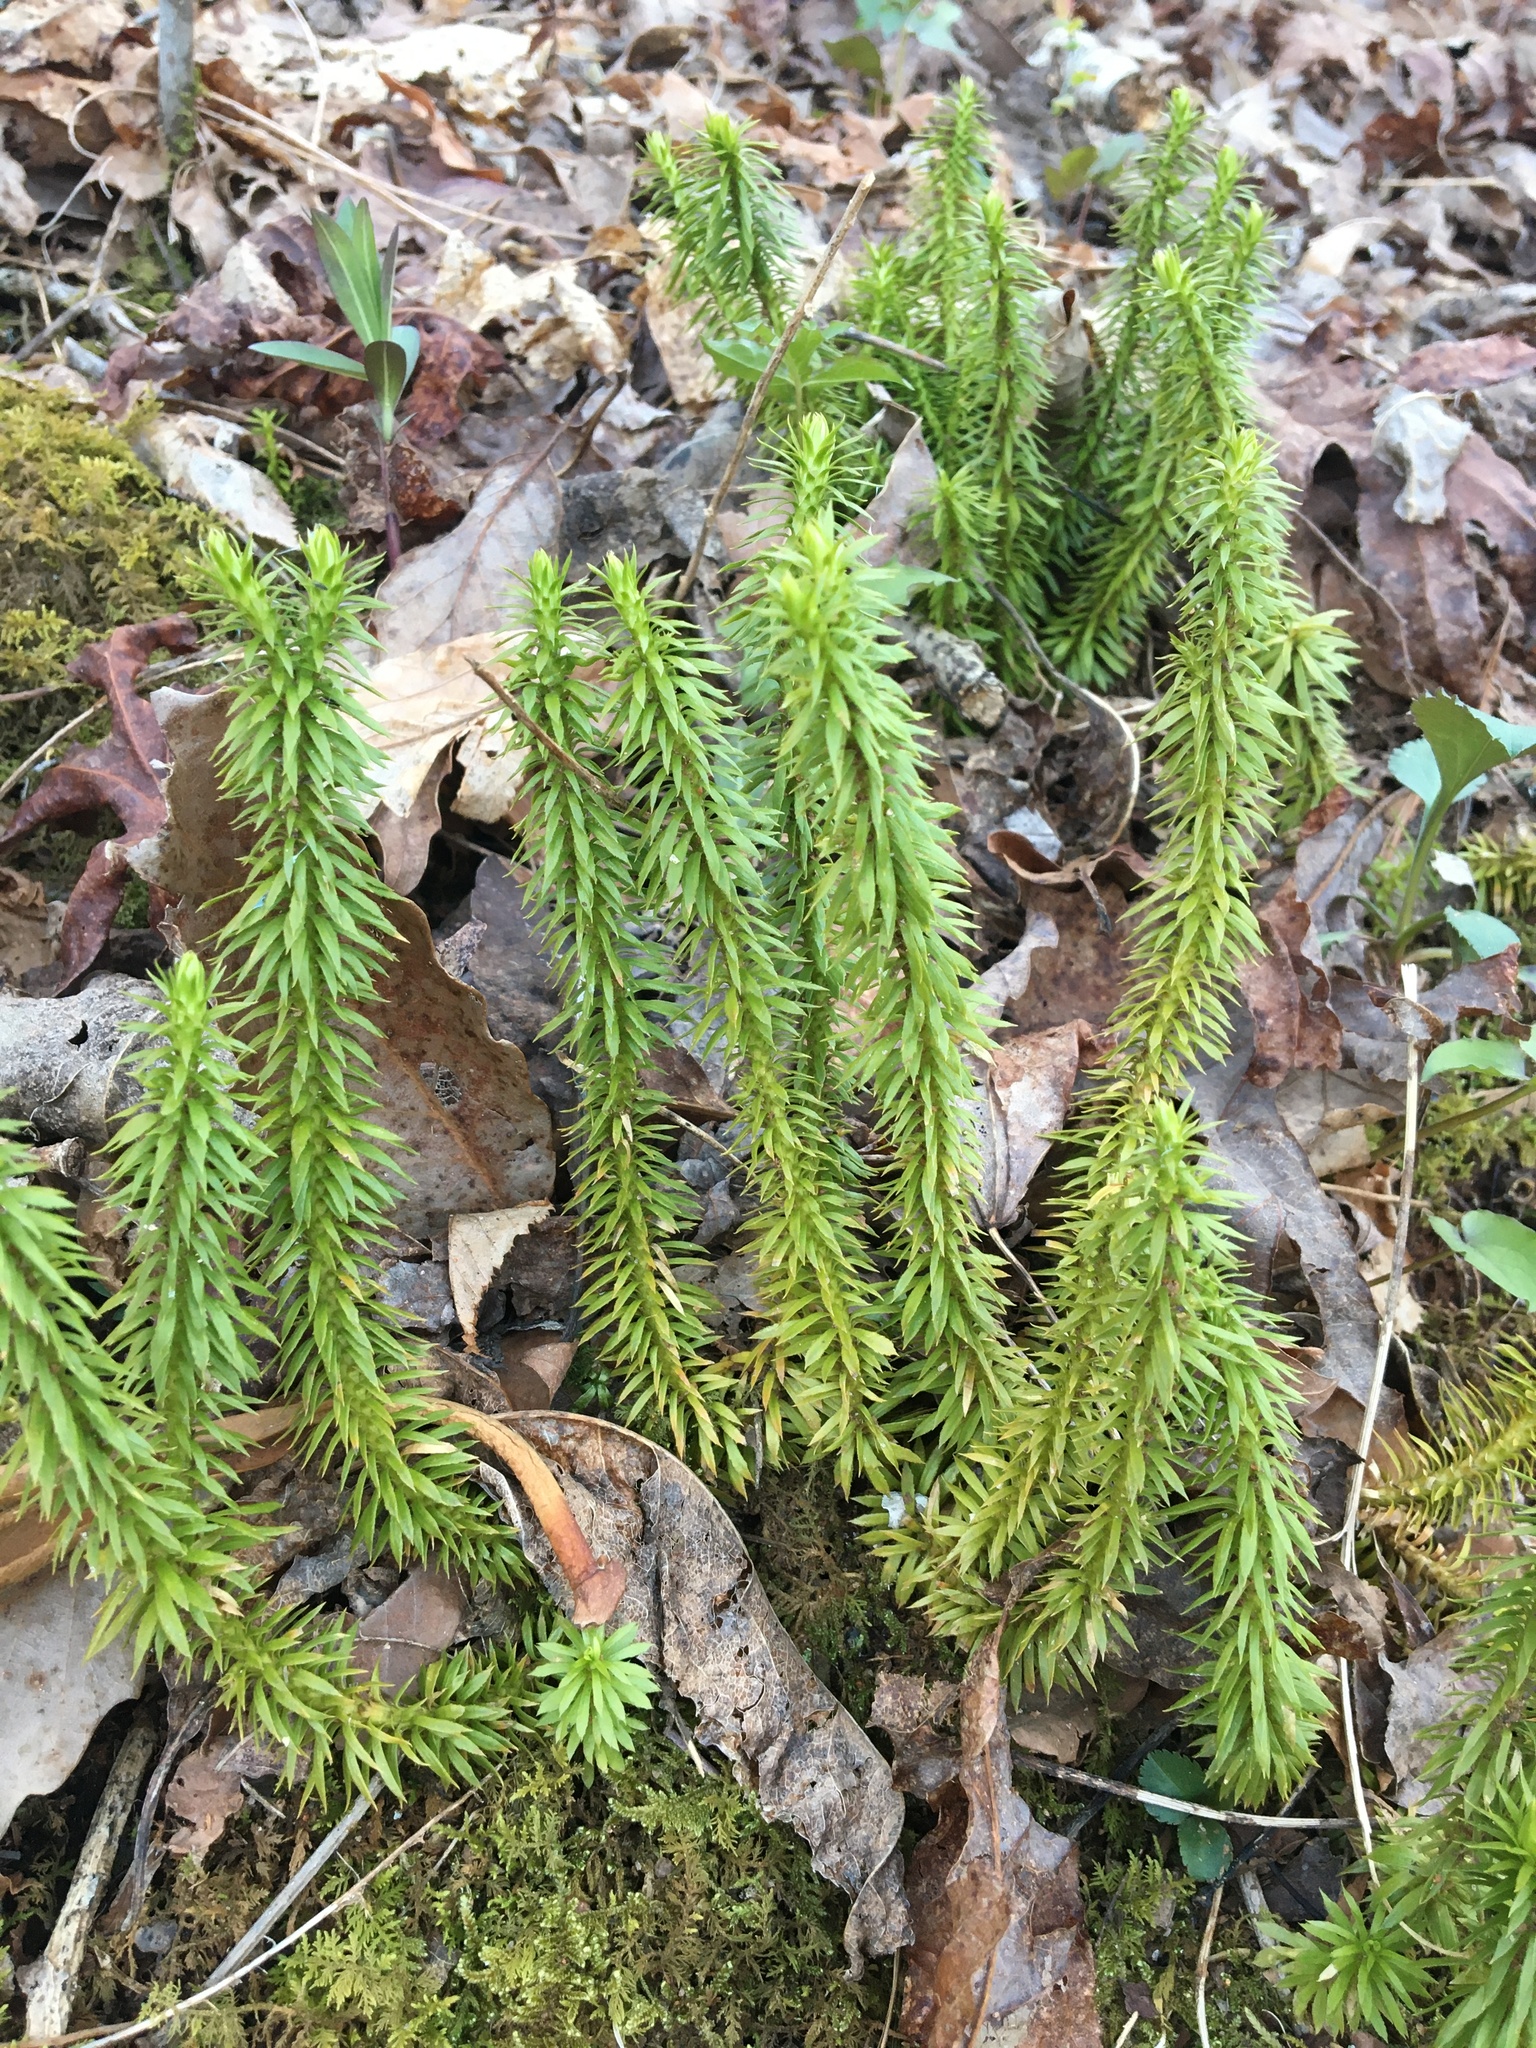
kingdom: Plantae
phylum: Tracheophyta
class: Lycopodiopsida
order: Lycopodiales
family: Lycopodiaceae
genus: Huperzia
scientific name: Huperzia lucidula
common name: Shining clubmoss
